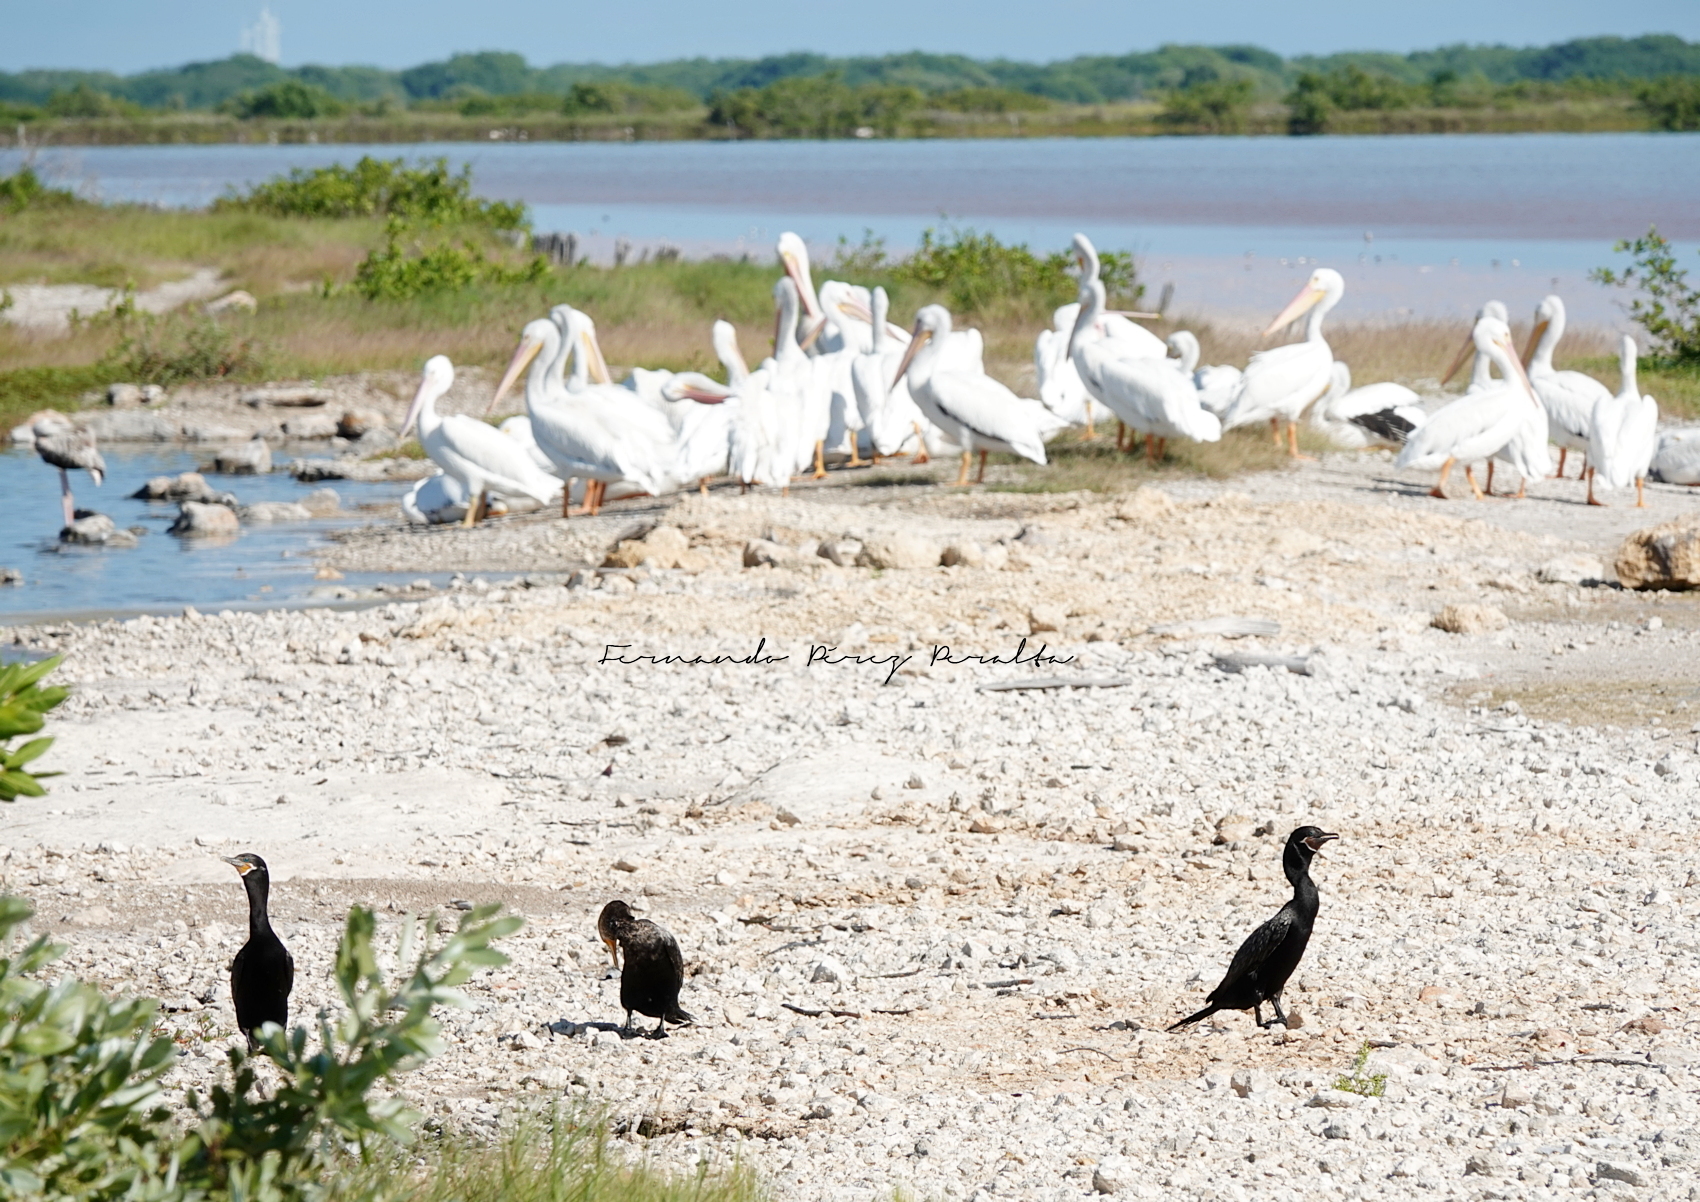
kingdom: Animalia
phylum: Chordata
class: Aves
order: Suliformes
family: Phalacrocoracidae
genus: Phalacrocorax
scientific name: Phalacrocorax brasilianus
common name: Neotropic cormorant
